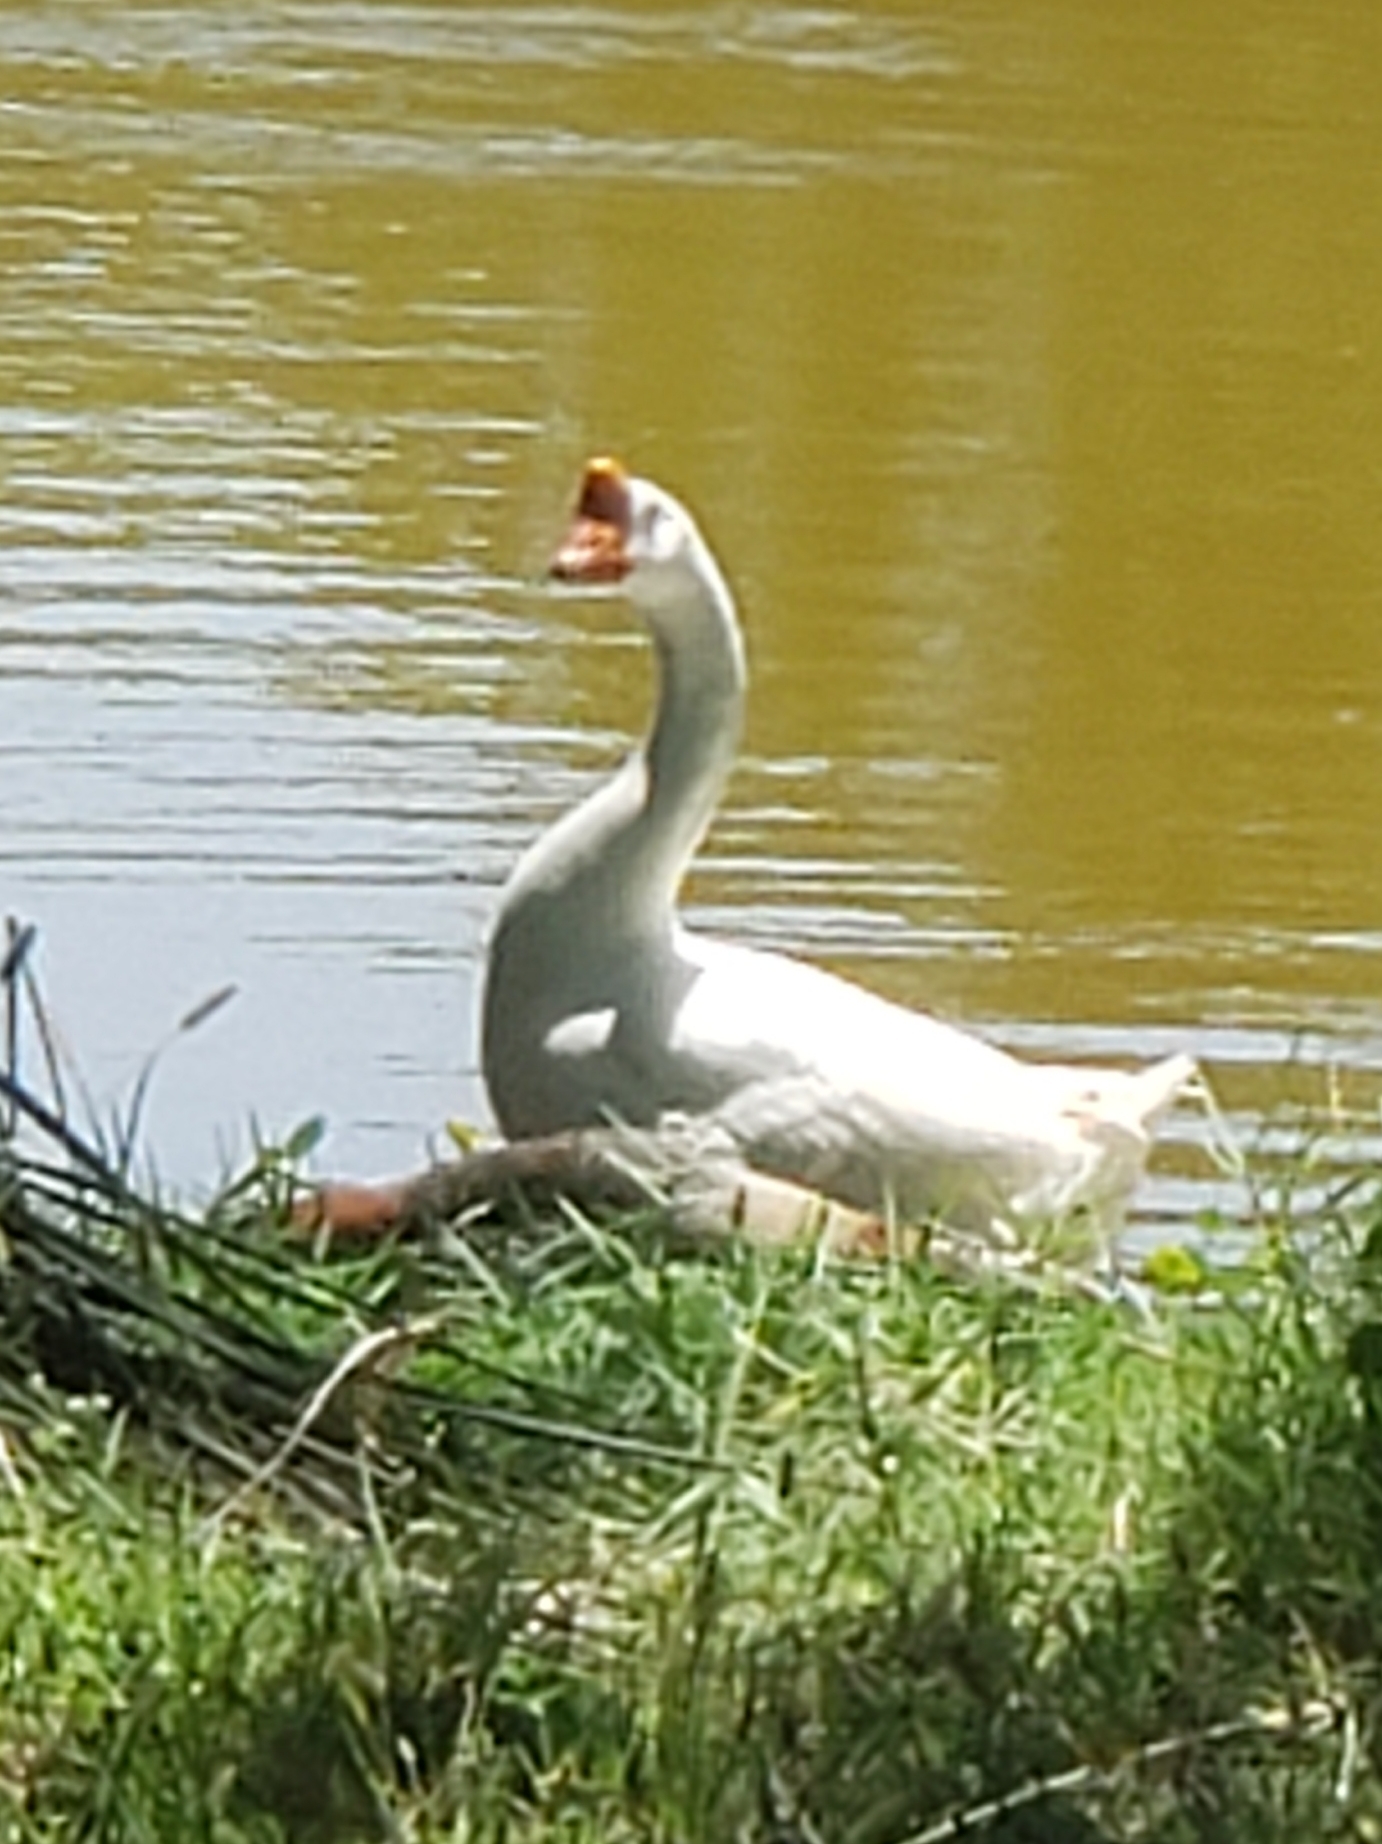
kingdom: Animalia
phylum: Chordata
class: Aves
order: Anseriformes
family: Anatidae
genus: Anser
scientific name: Anser cygnoides
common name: Swan goose
